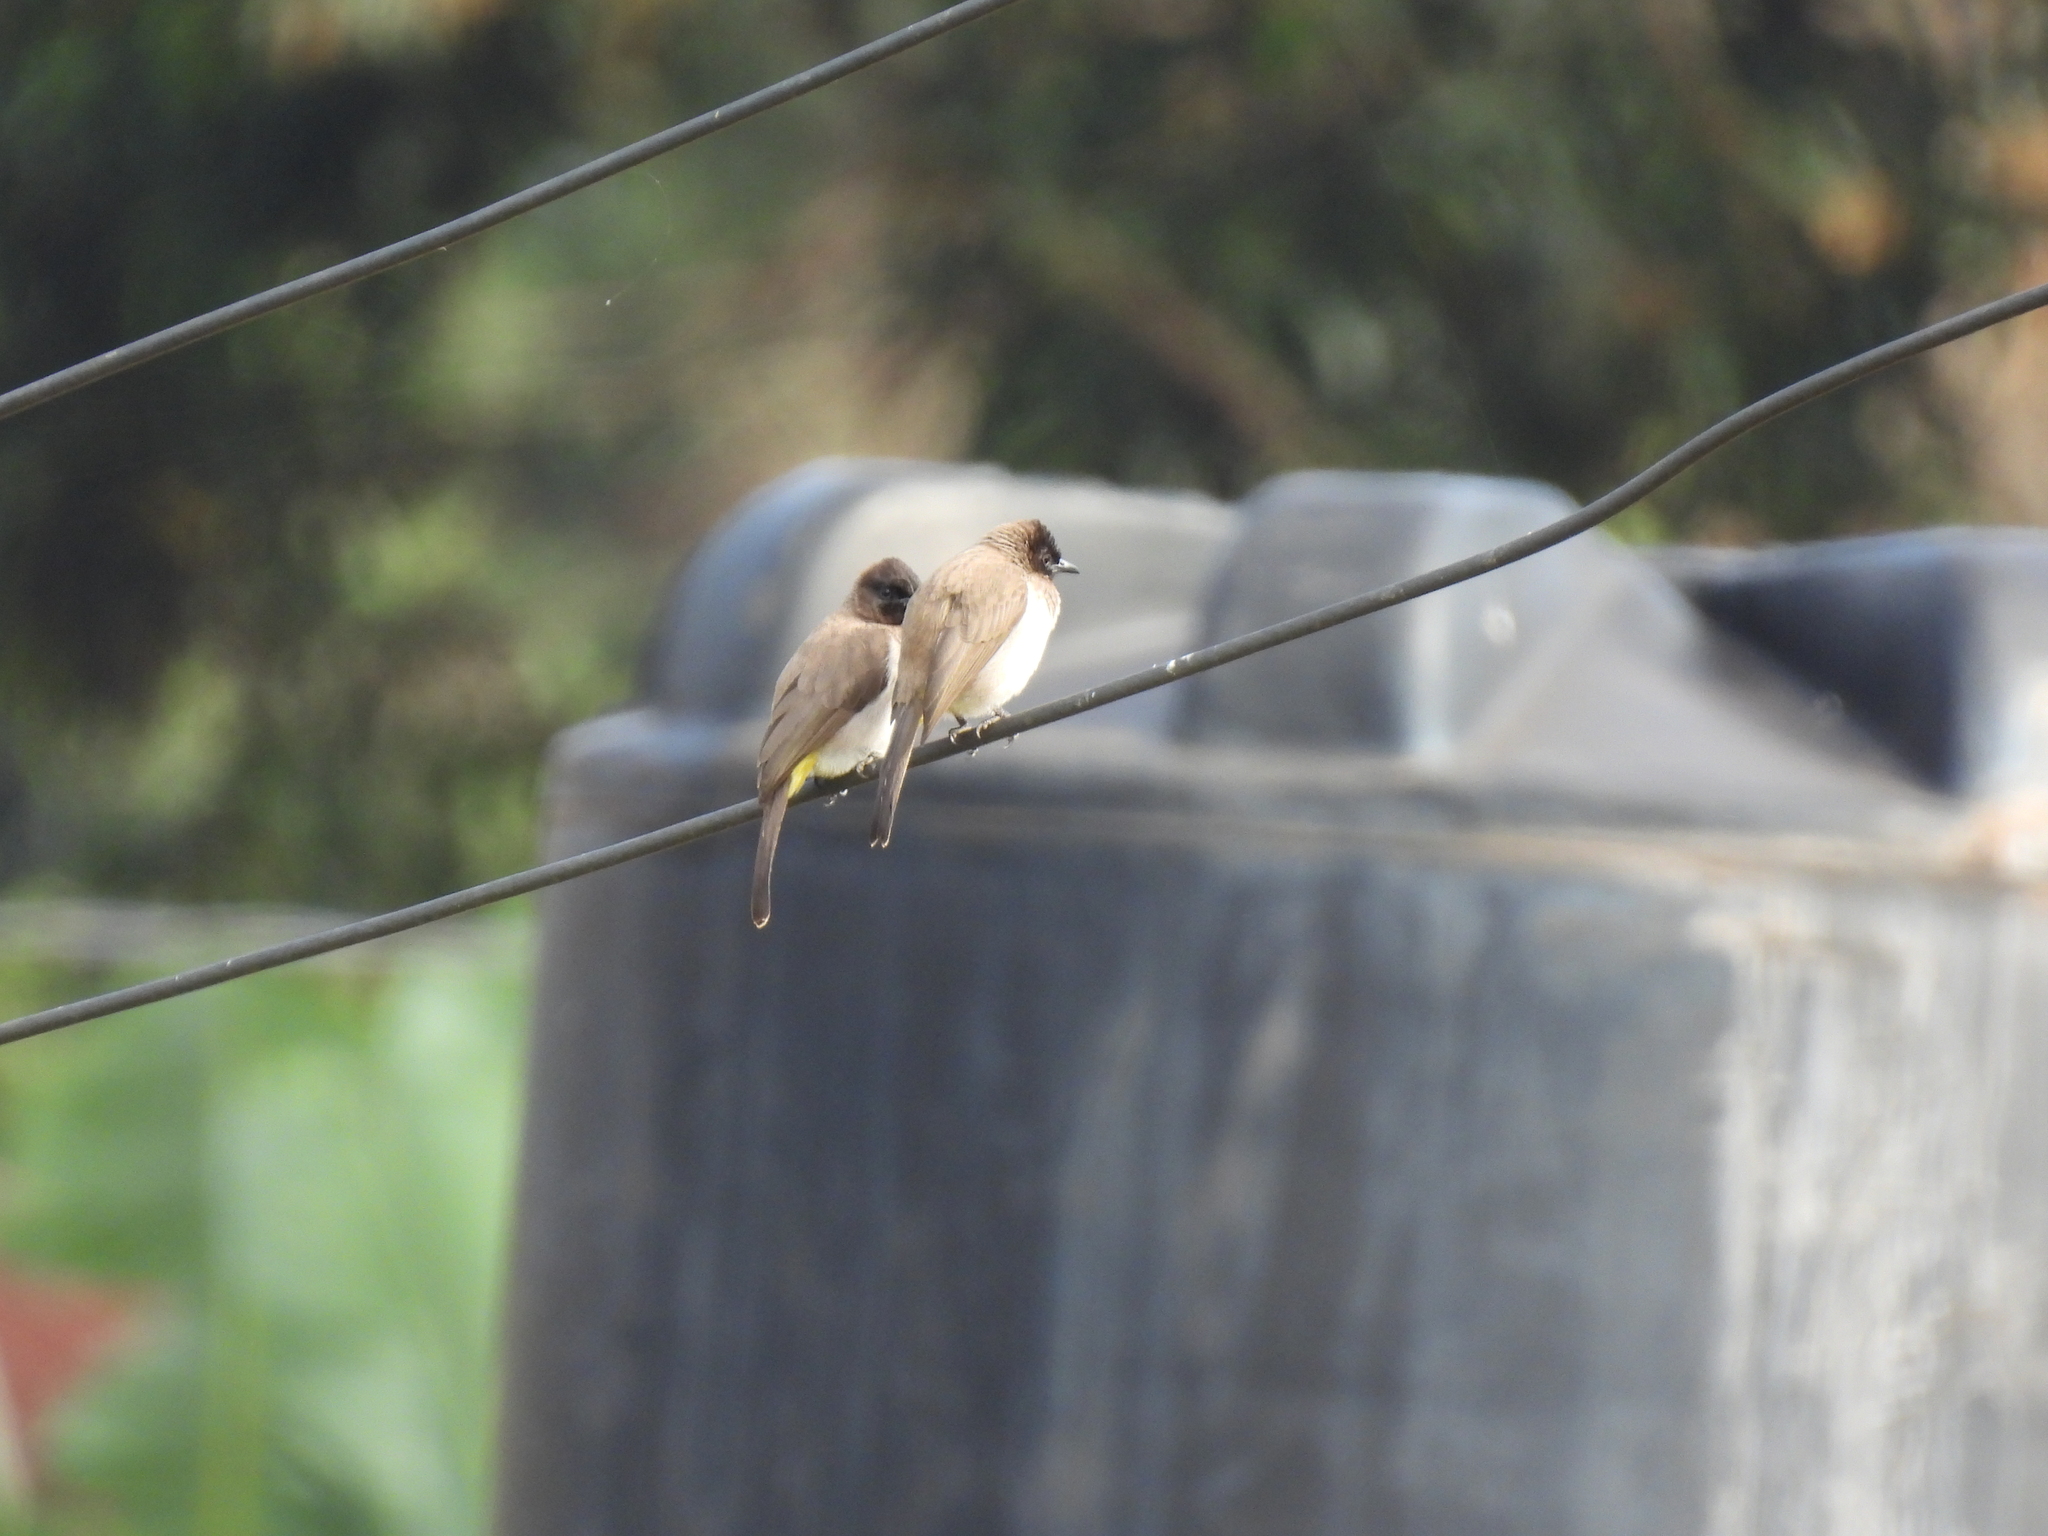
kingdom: Animalia
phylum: Chordata
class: Aves
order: Passeriformes
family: Pycnonotidae
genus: Pycnonotus
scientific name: Pycnonotus barbatus
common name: Common bulbul
